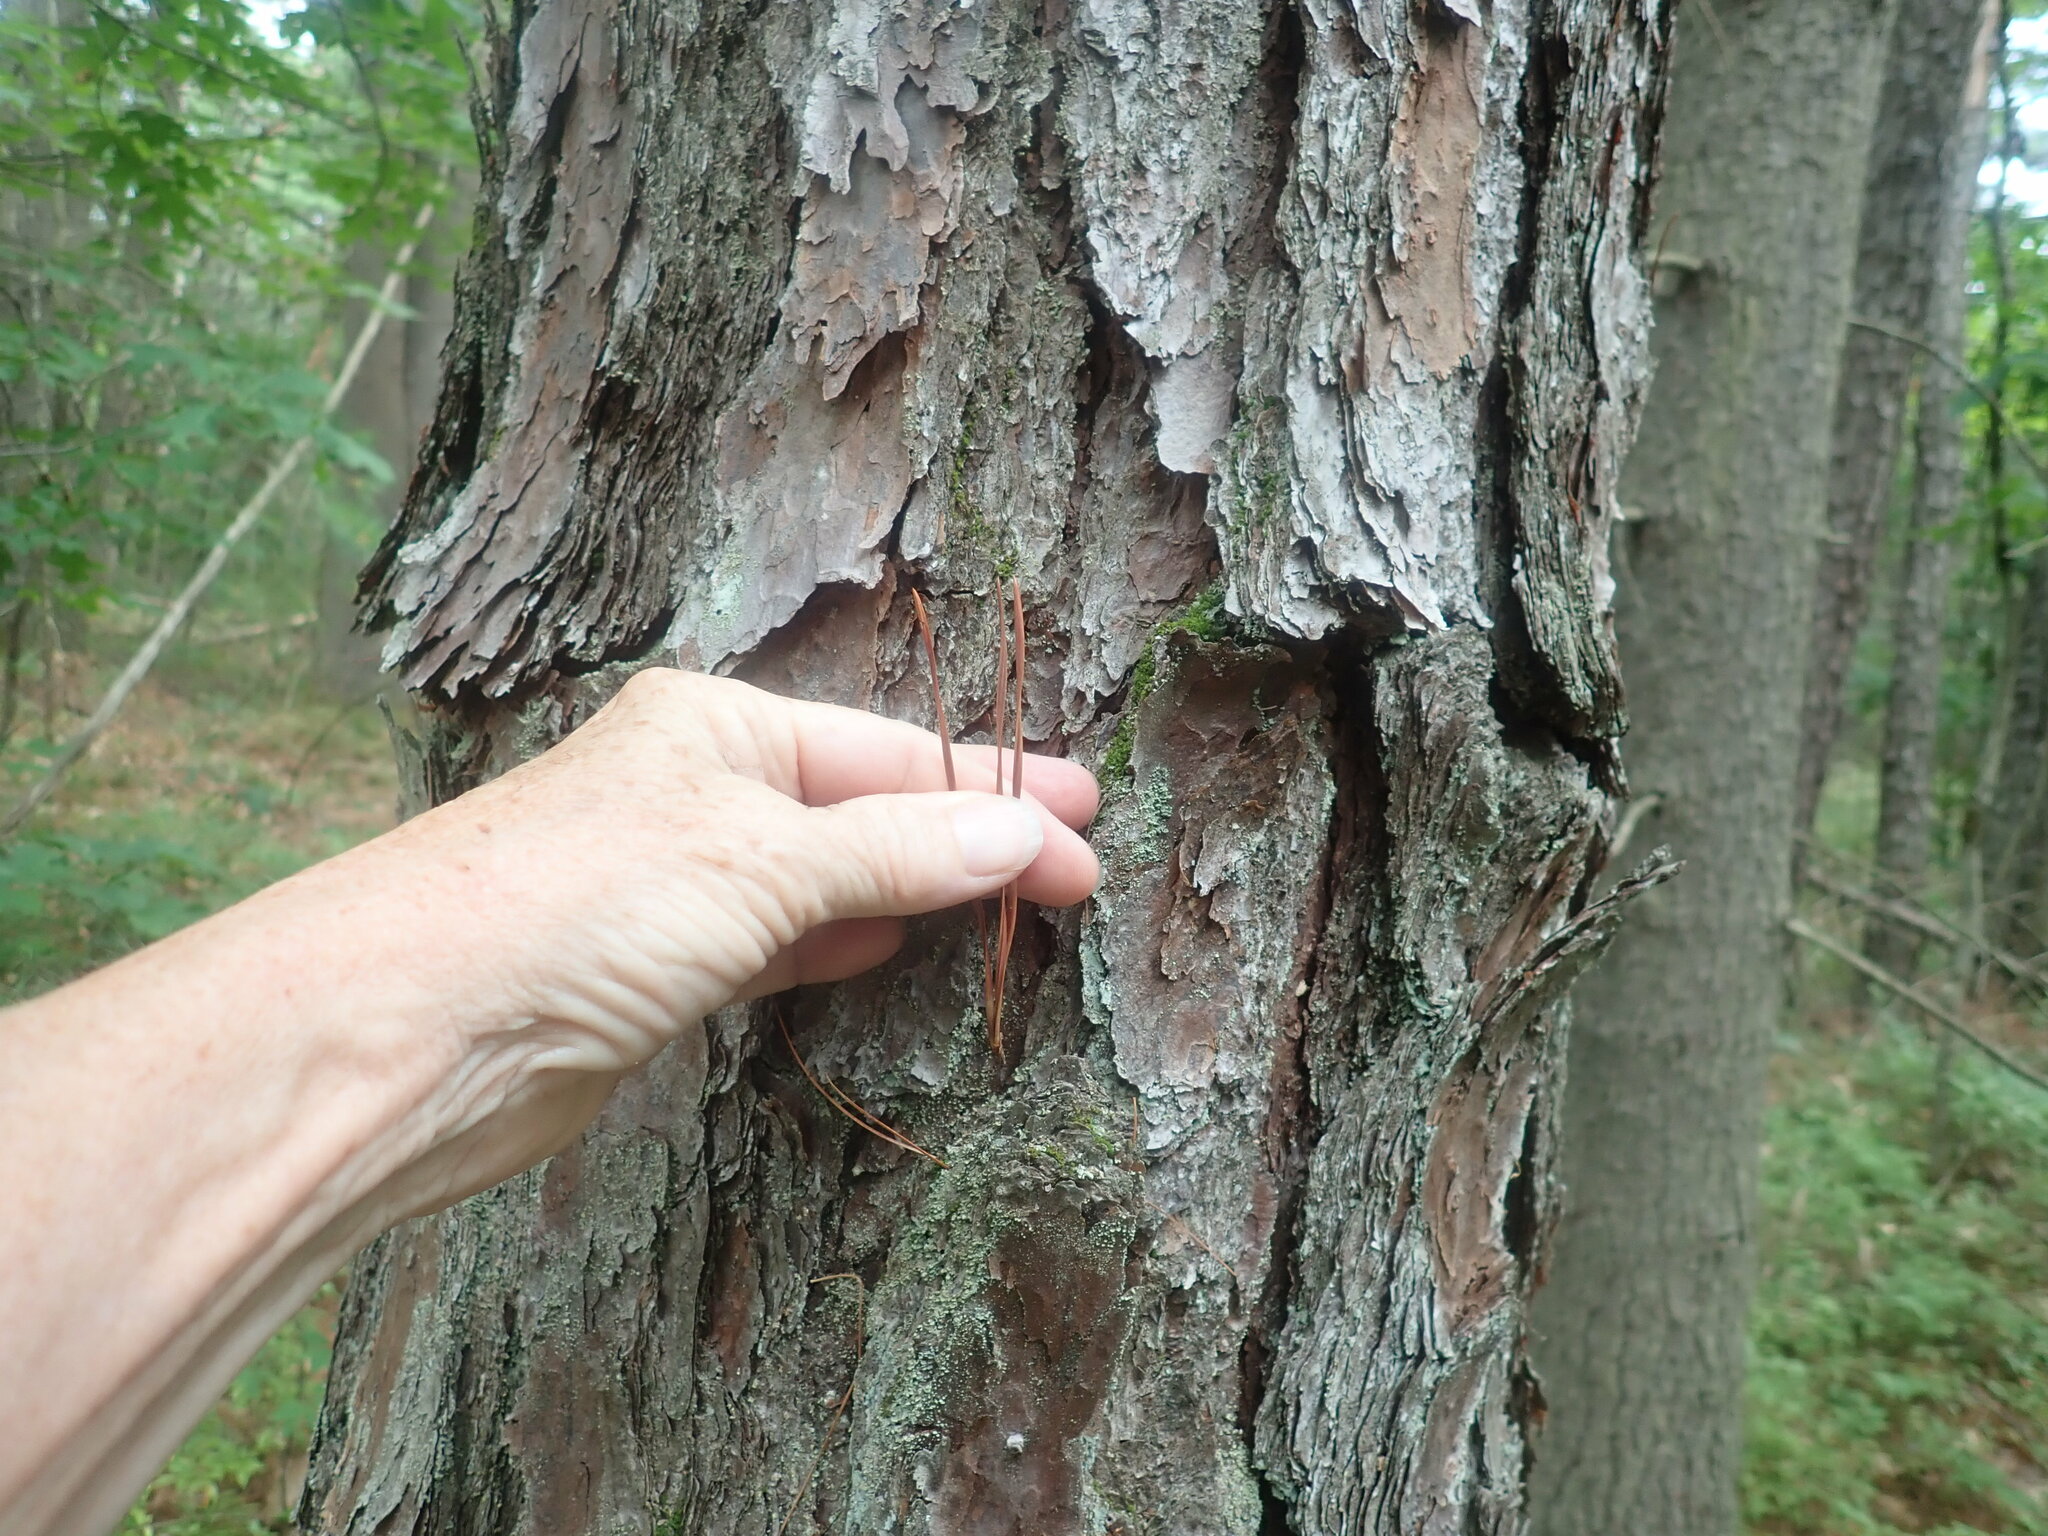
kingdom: Plantae
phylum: Tracheophyta
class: Pinopsida
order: Pinales
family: Pinaceae
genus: Pinus
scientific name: Pinus rigida
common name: Pitch pine
